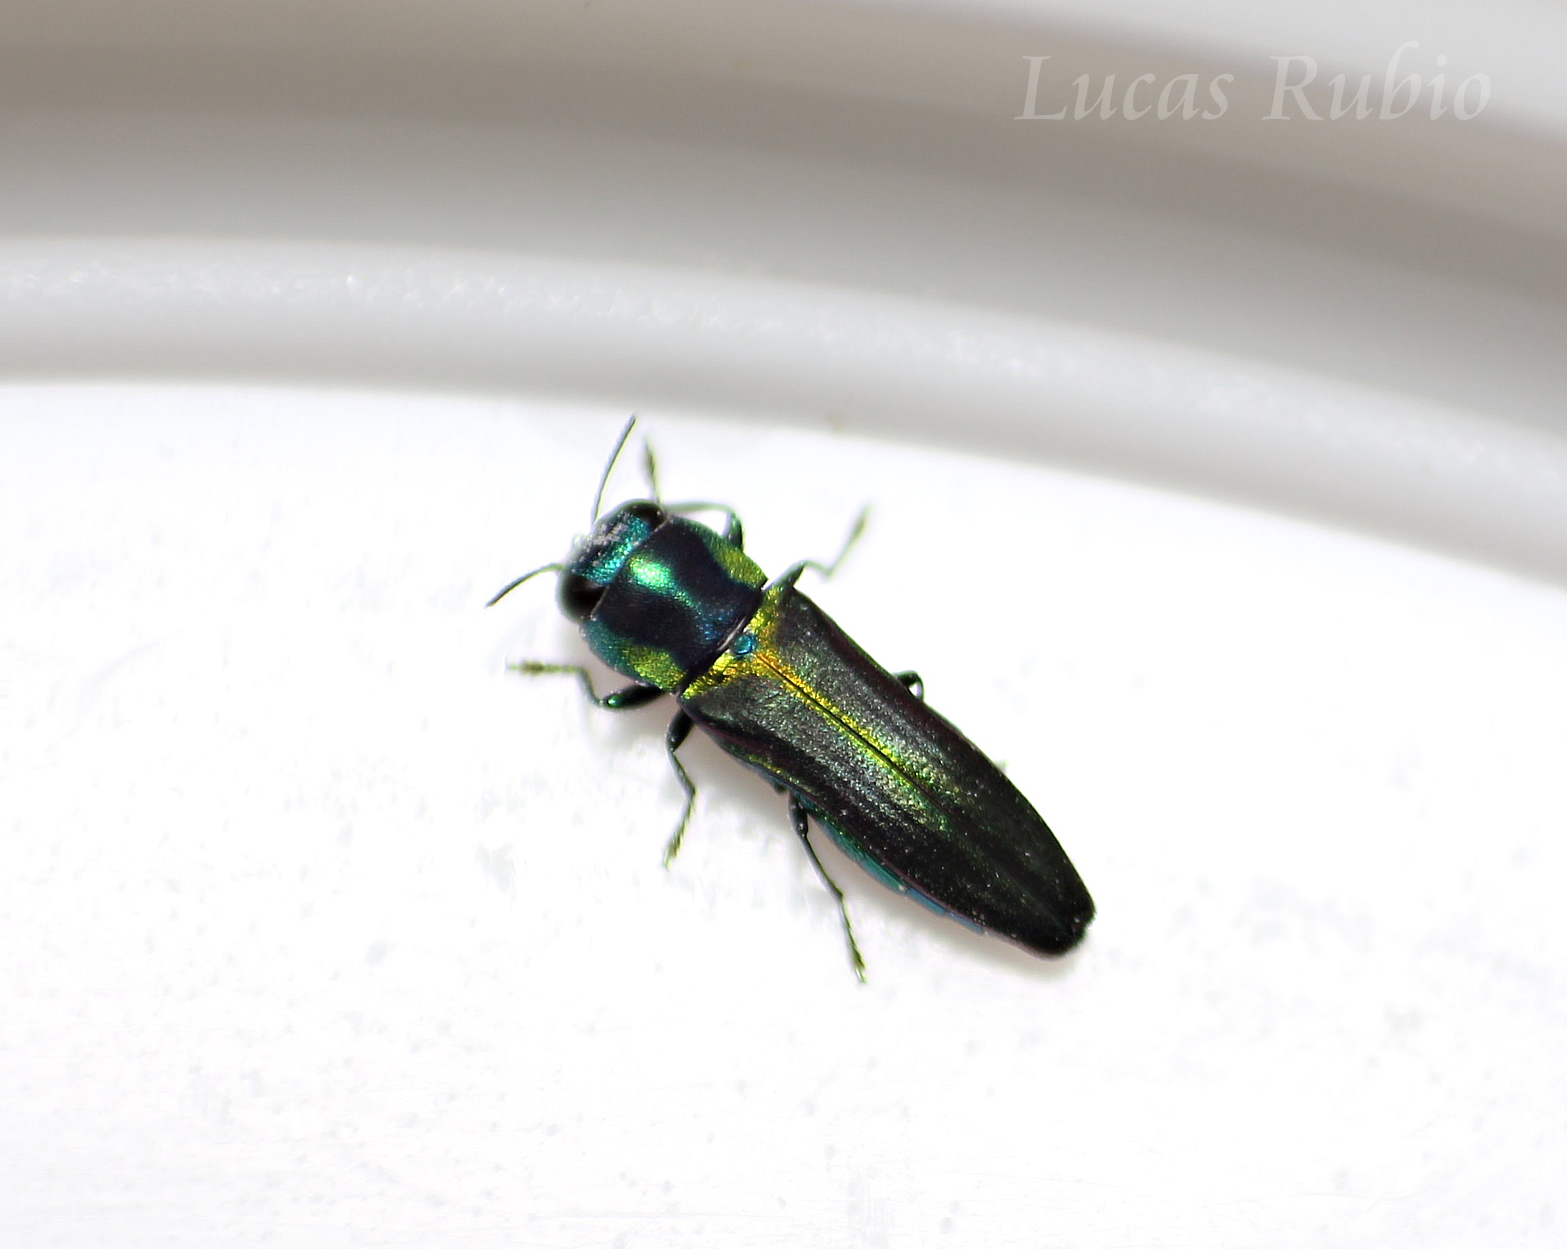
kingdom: Animalia
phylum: Arthropoda
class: Insecta
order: Coleoptera
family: Buprestidae
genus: Agrilaxia
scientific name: Agrilaxia decipiens
